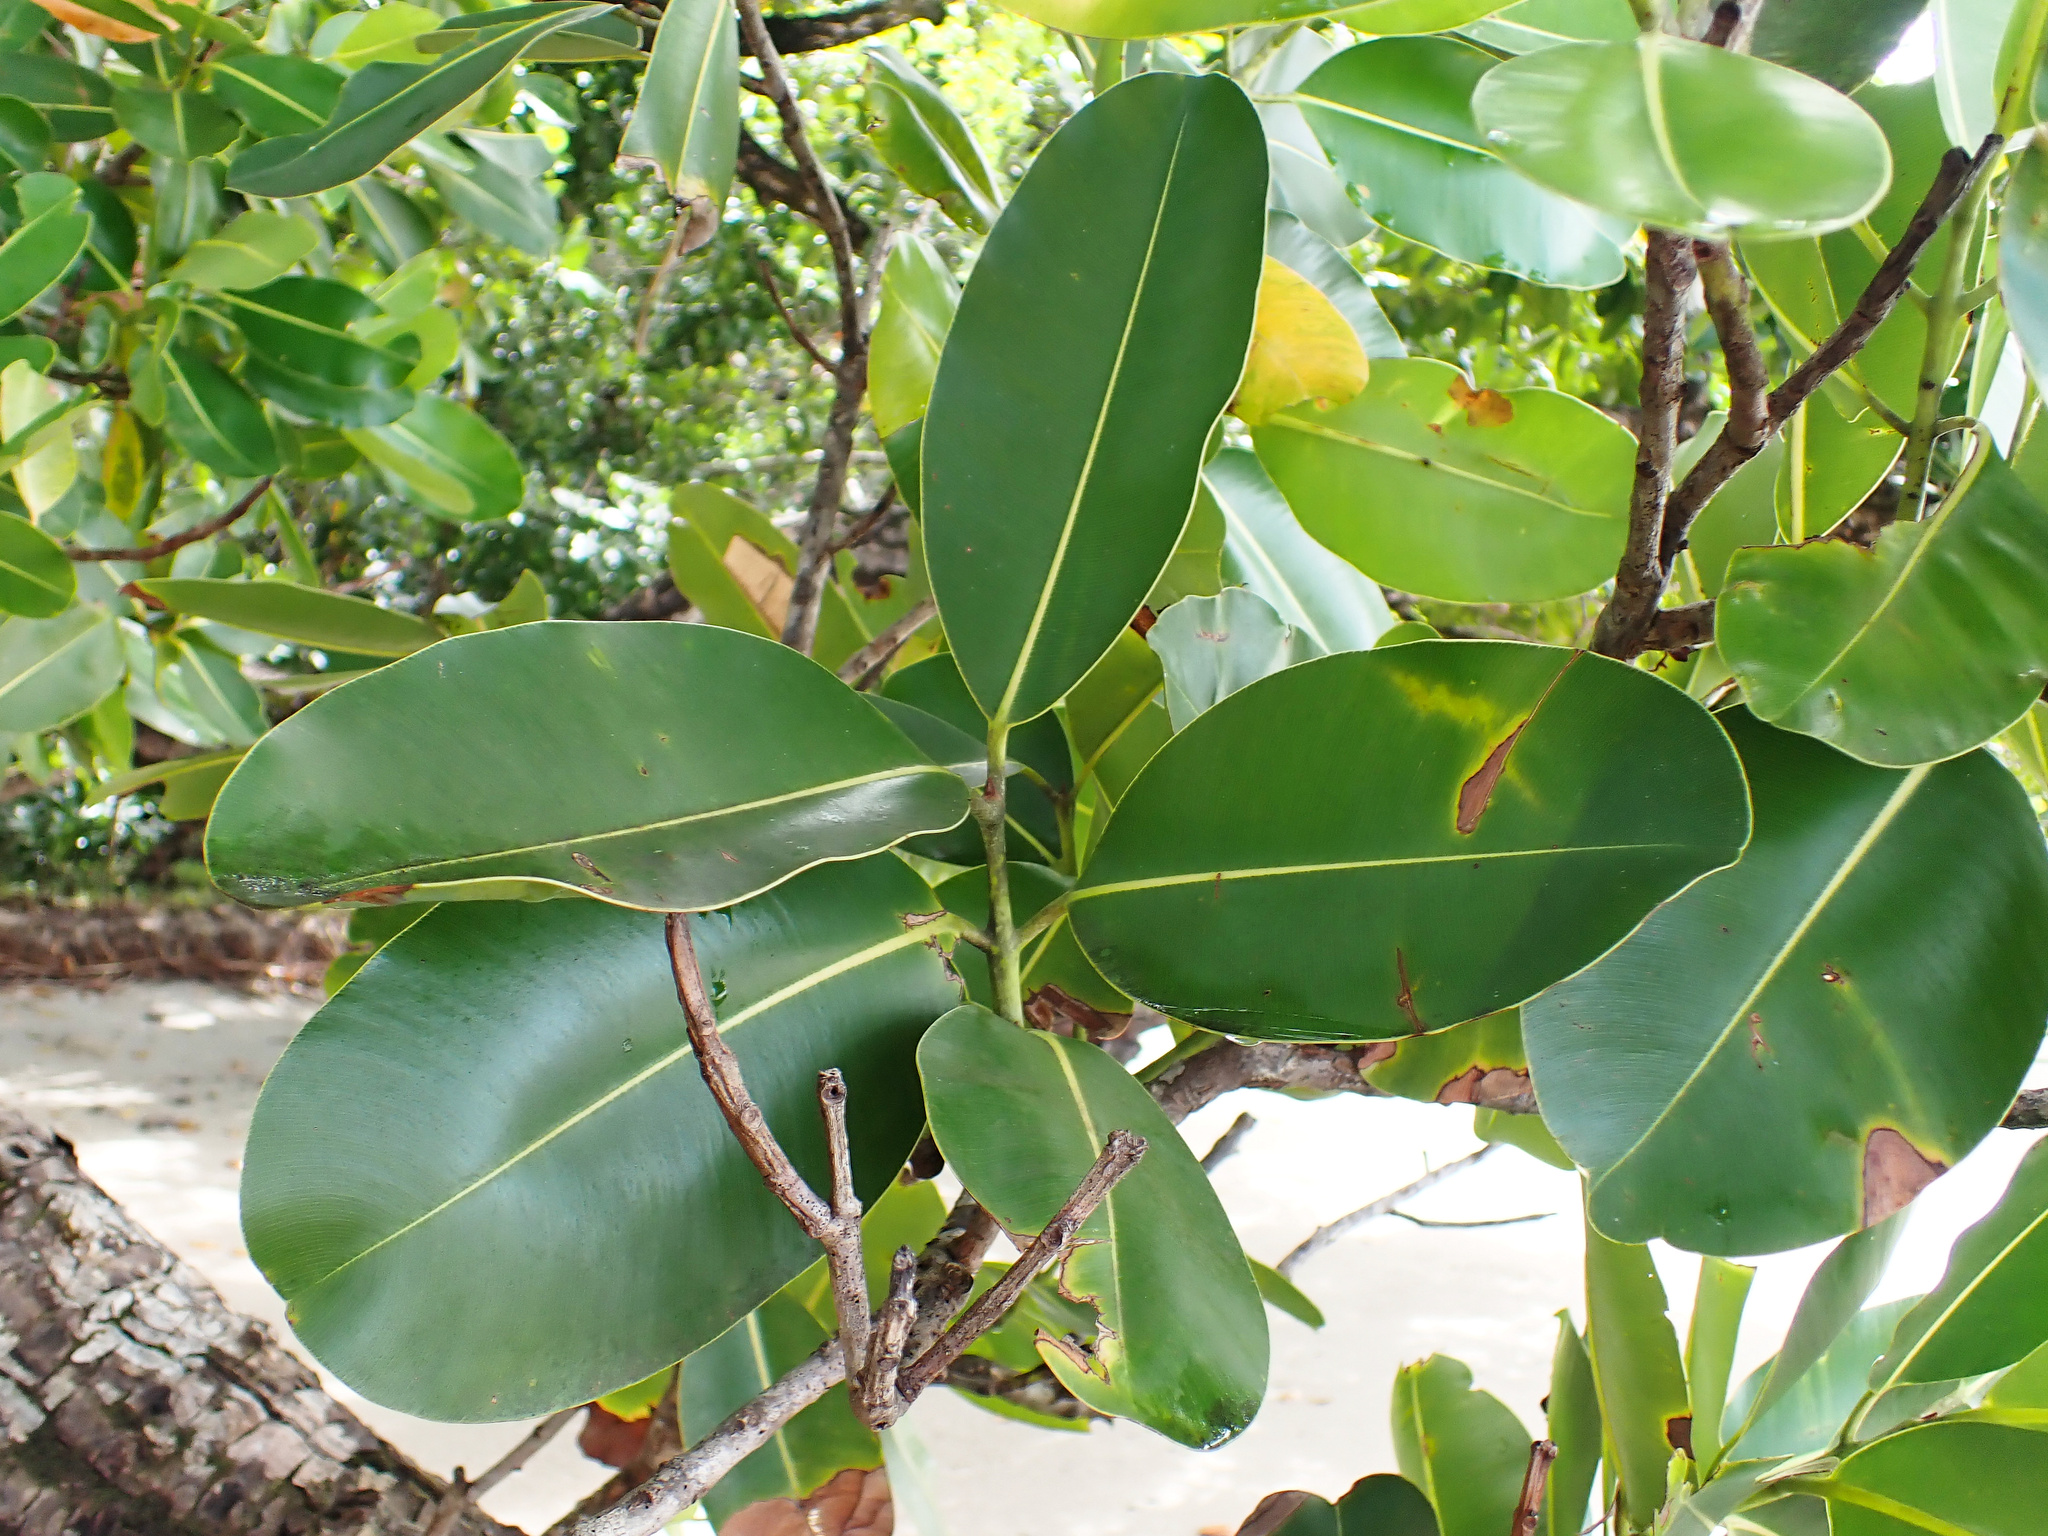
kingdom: Plantae
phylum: Tracheophyta
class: Magnoliopsida
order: Malpighiales
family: Calophyllaceae
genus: Calophyllum
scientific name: Calophyllum inophyllum
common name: Alexandrian laurel
